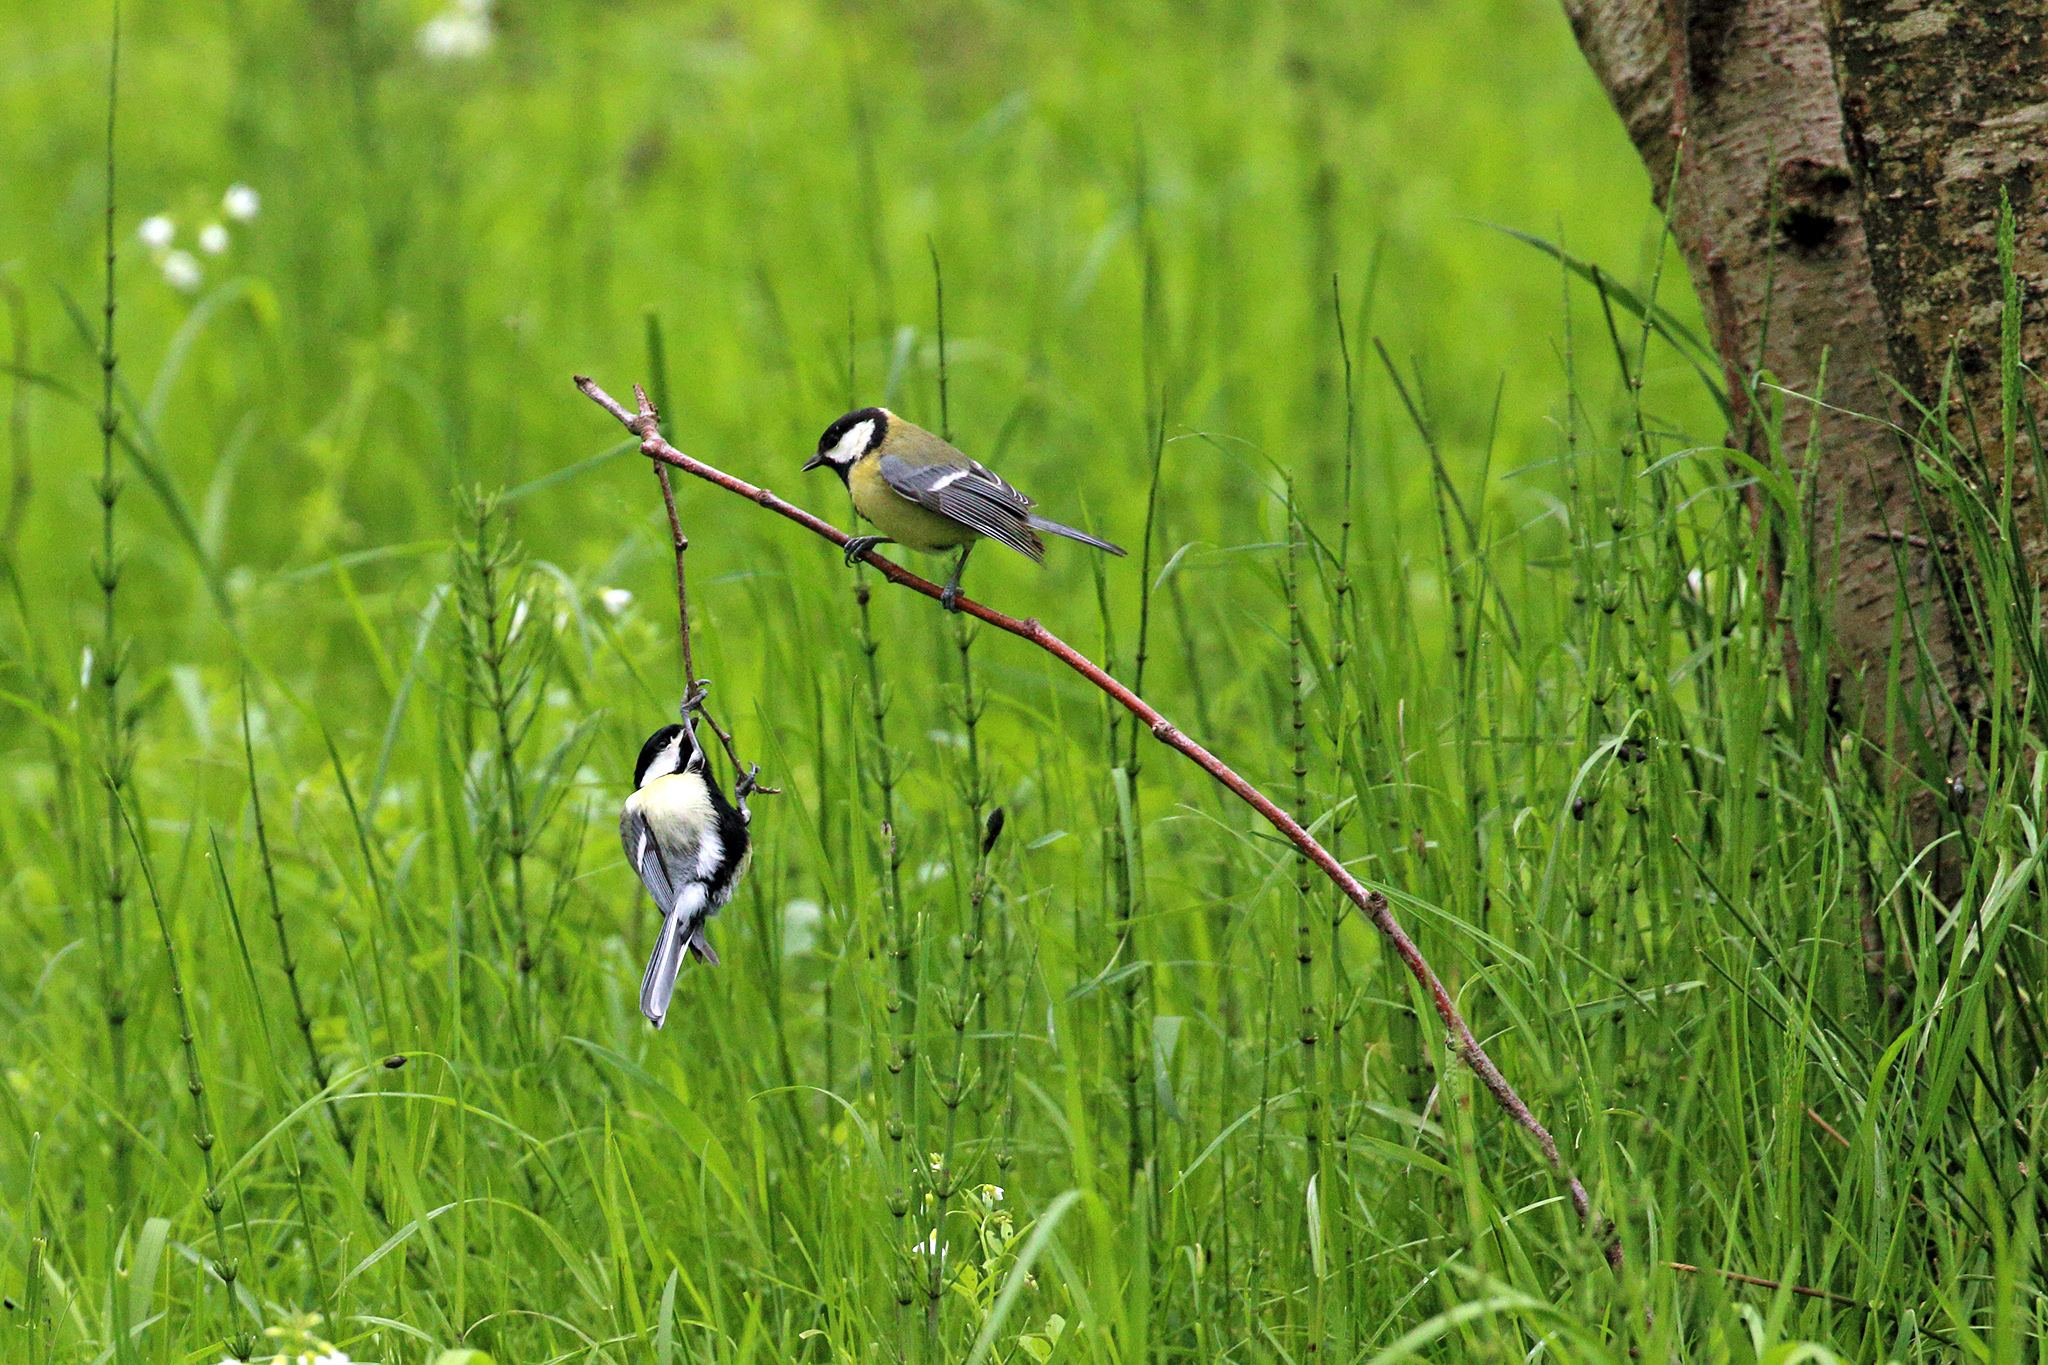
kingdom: Animalia
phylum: Chordata
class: Aves
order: Passeriformes
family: Paridae
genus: Parus
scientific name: Parus major
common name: Great tit
